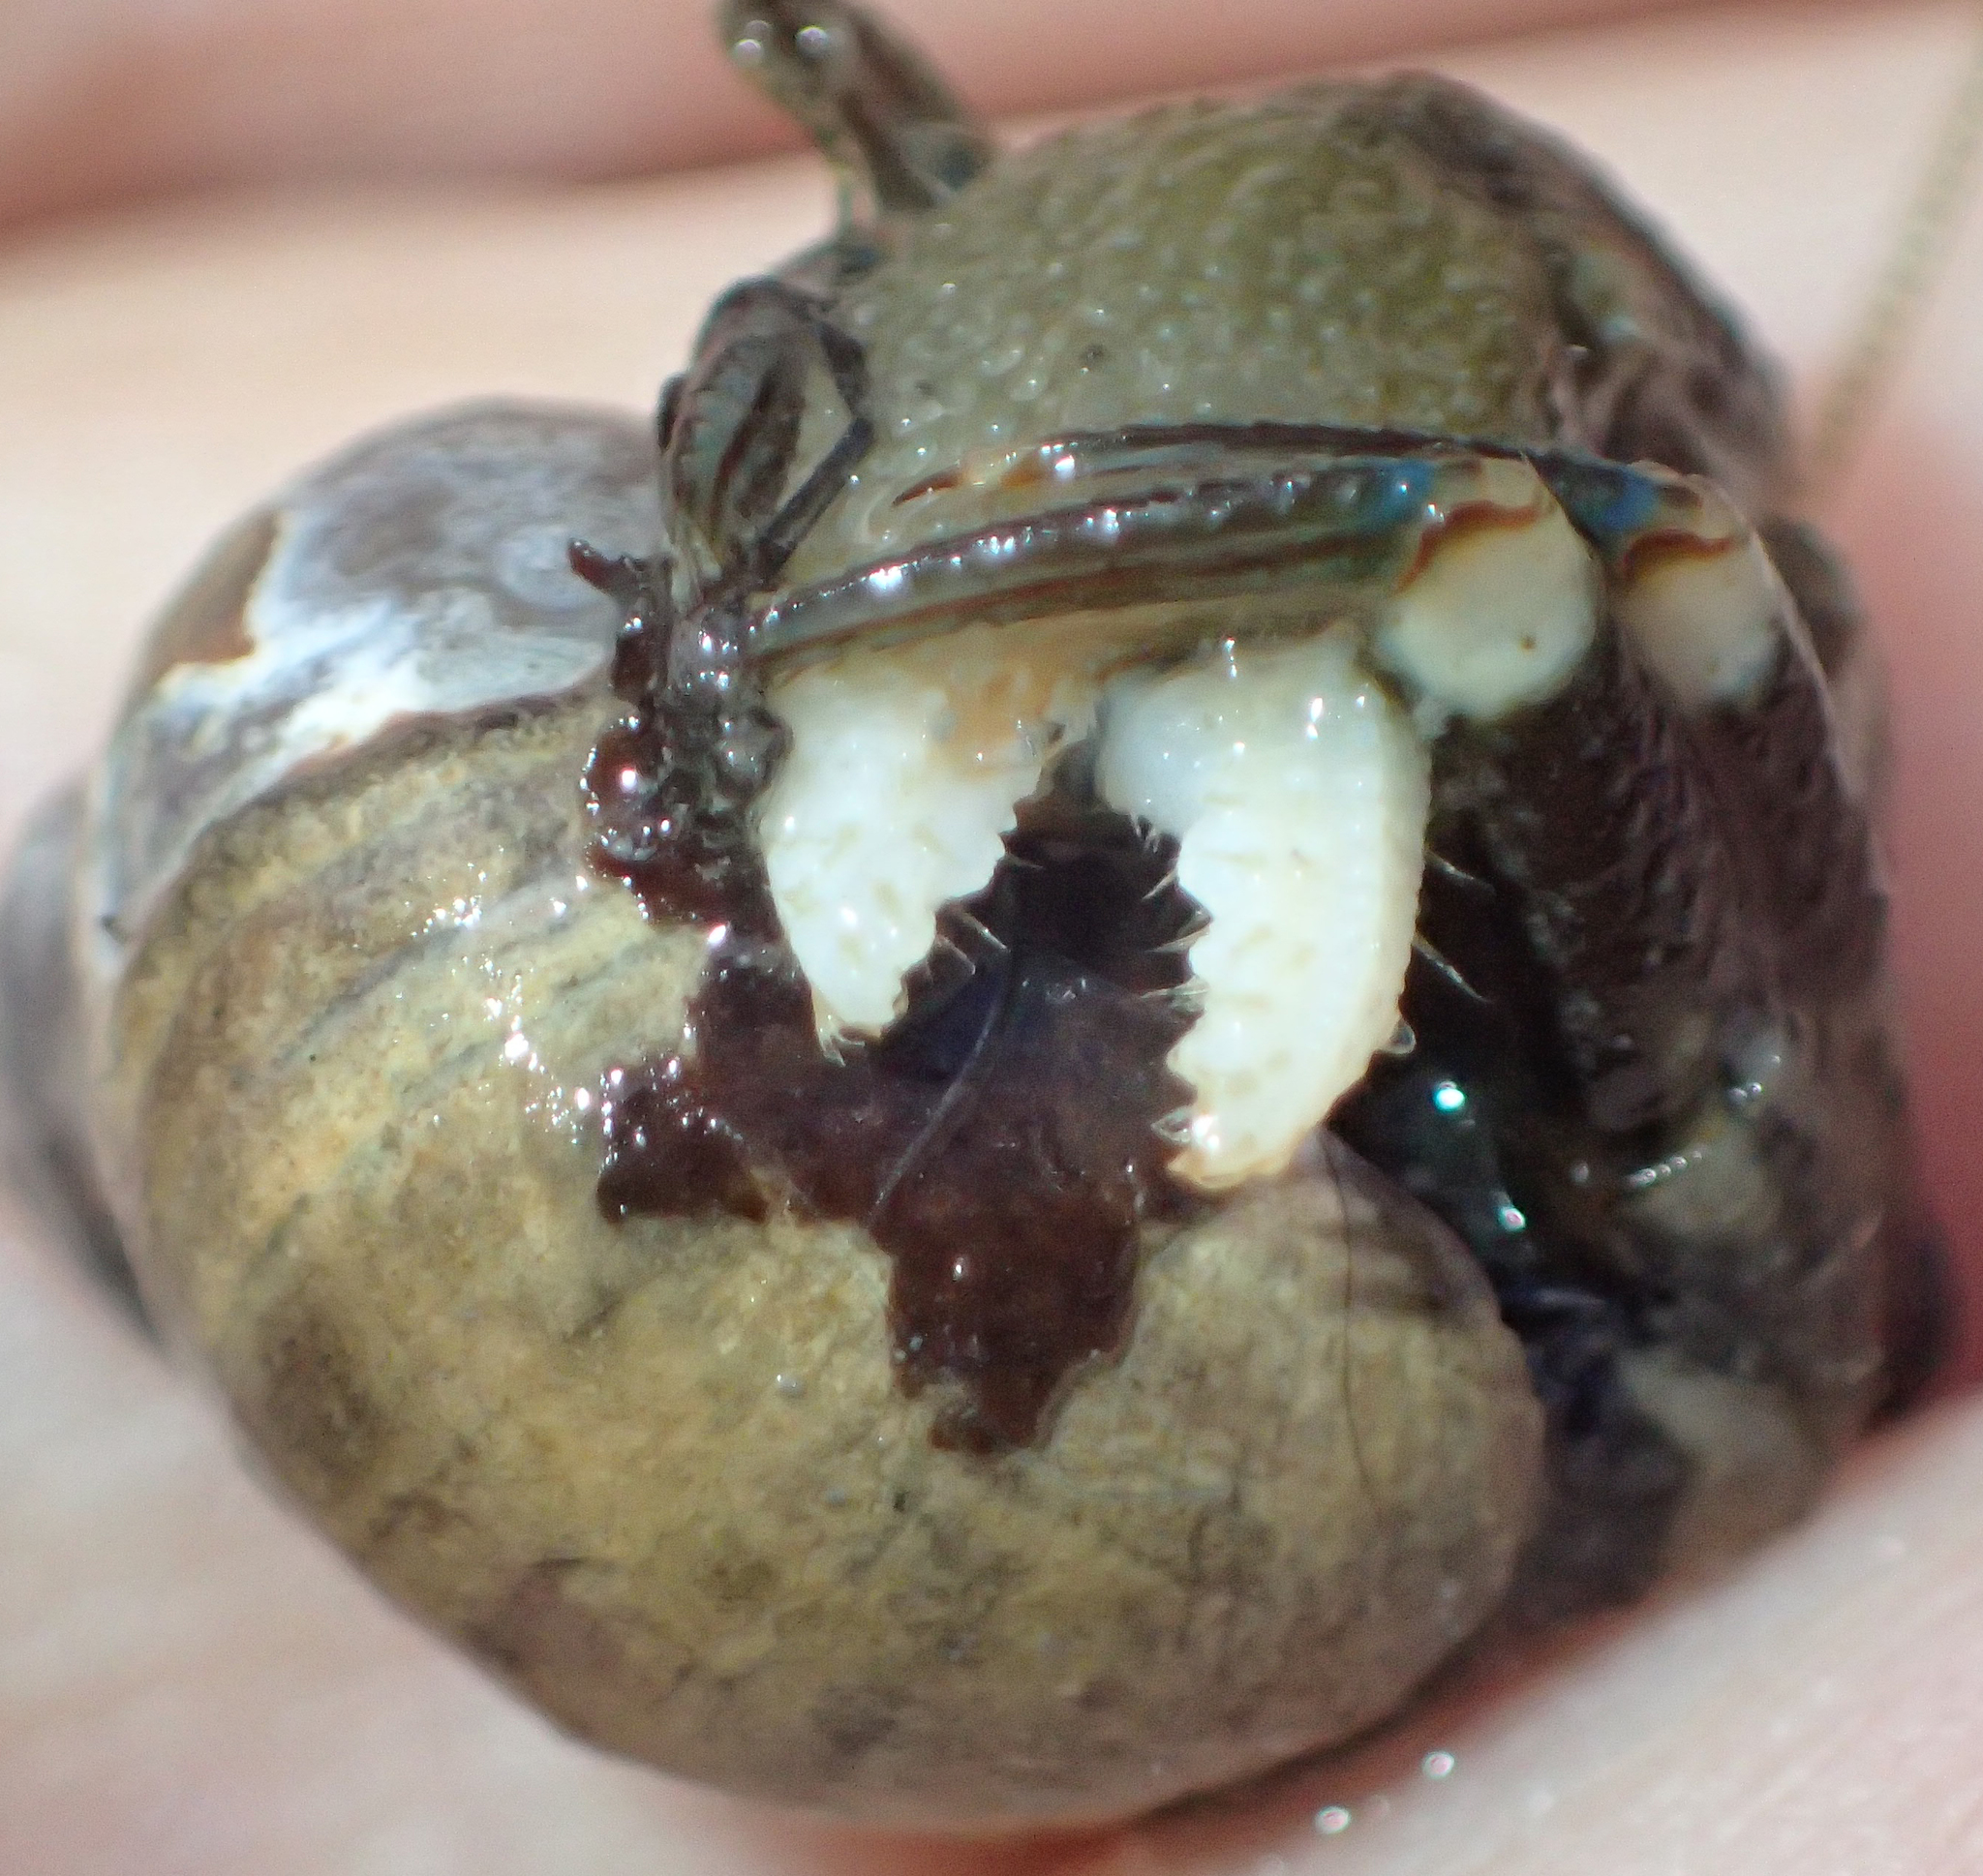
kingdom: Animalia
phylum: Arthropoda
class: Malacostraca
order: Decapoda
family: Paguridae
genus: Pagurus
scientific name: Pagurus hirsutiusculus
